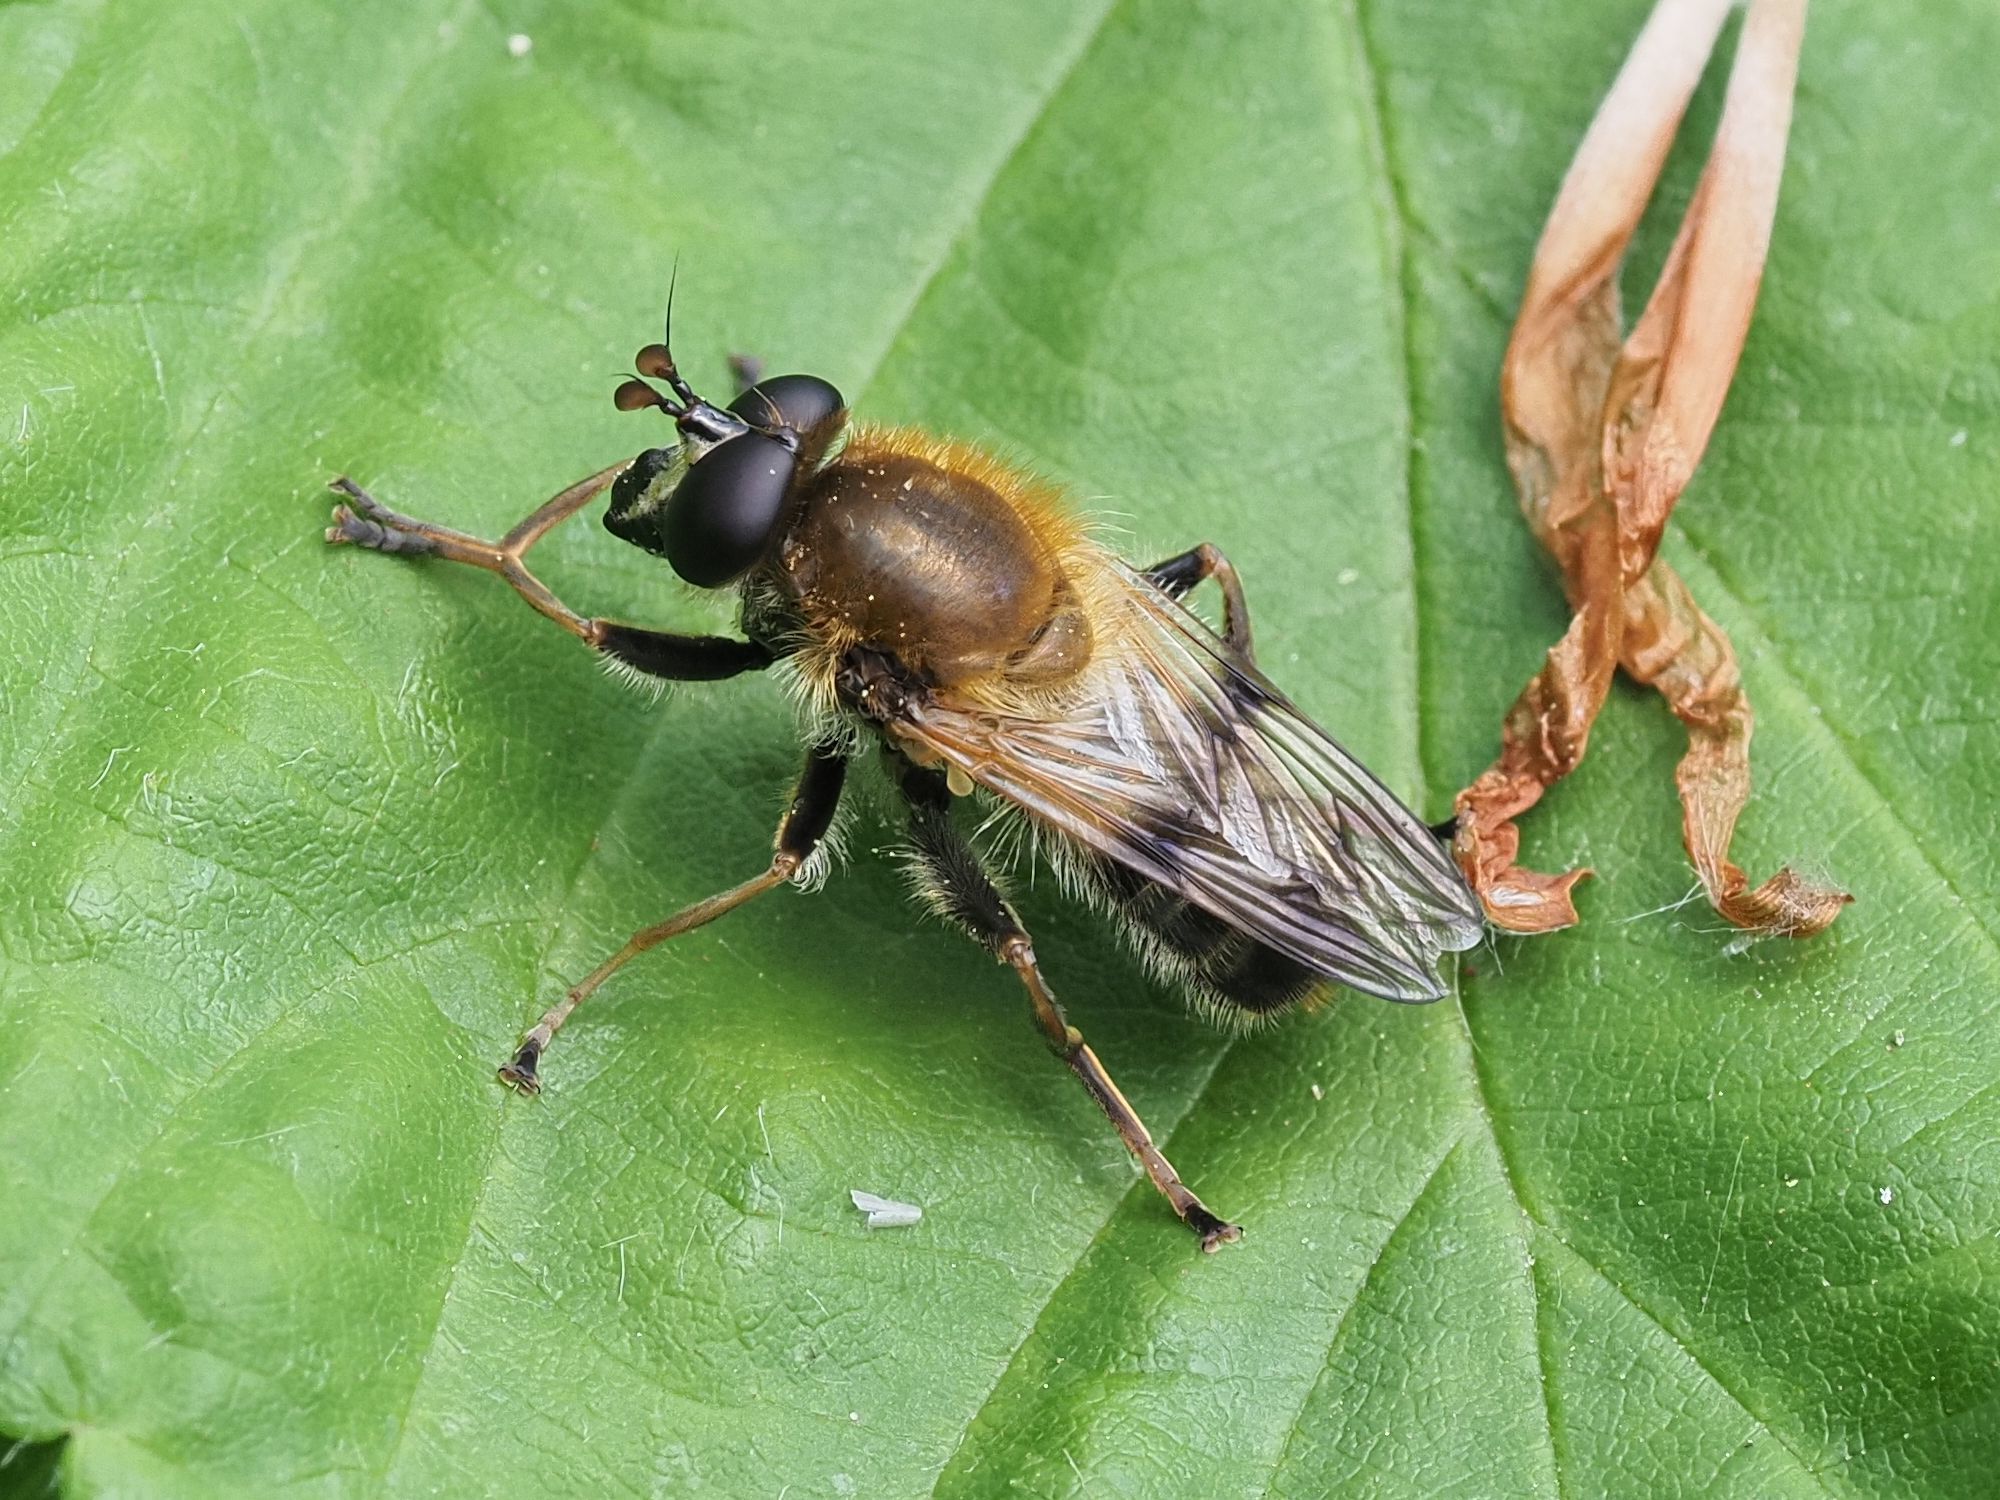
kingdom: Animalia
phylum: Arthropoda
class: Insecta
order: Diptera
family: Syrphidae
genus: Criorhina
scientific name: Criorhina asilica
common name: Pale-banded bear hoverfly
